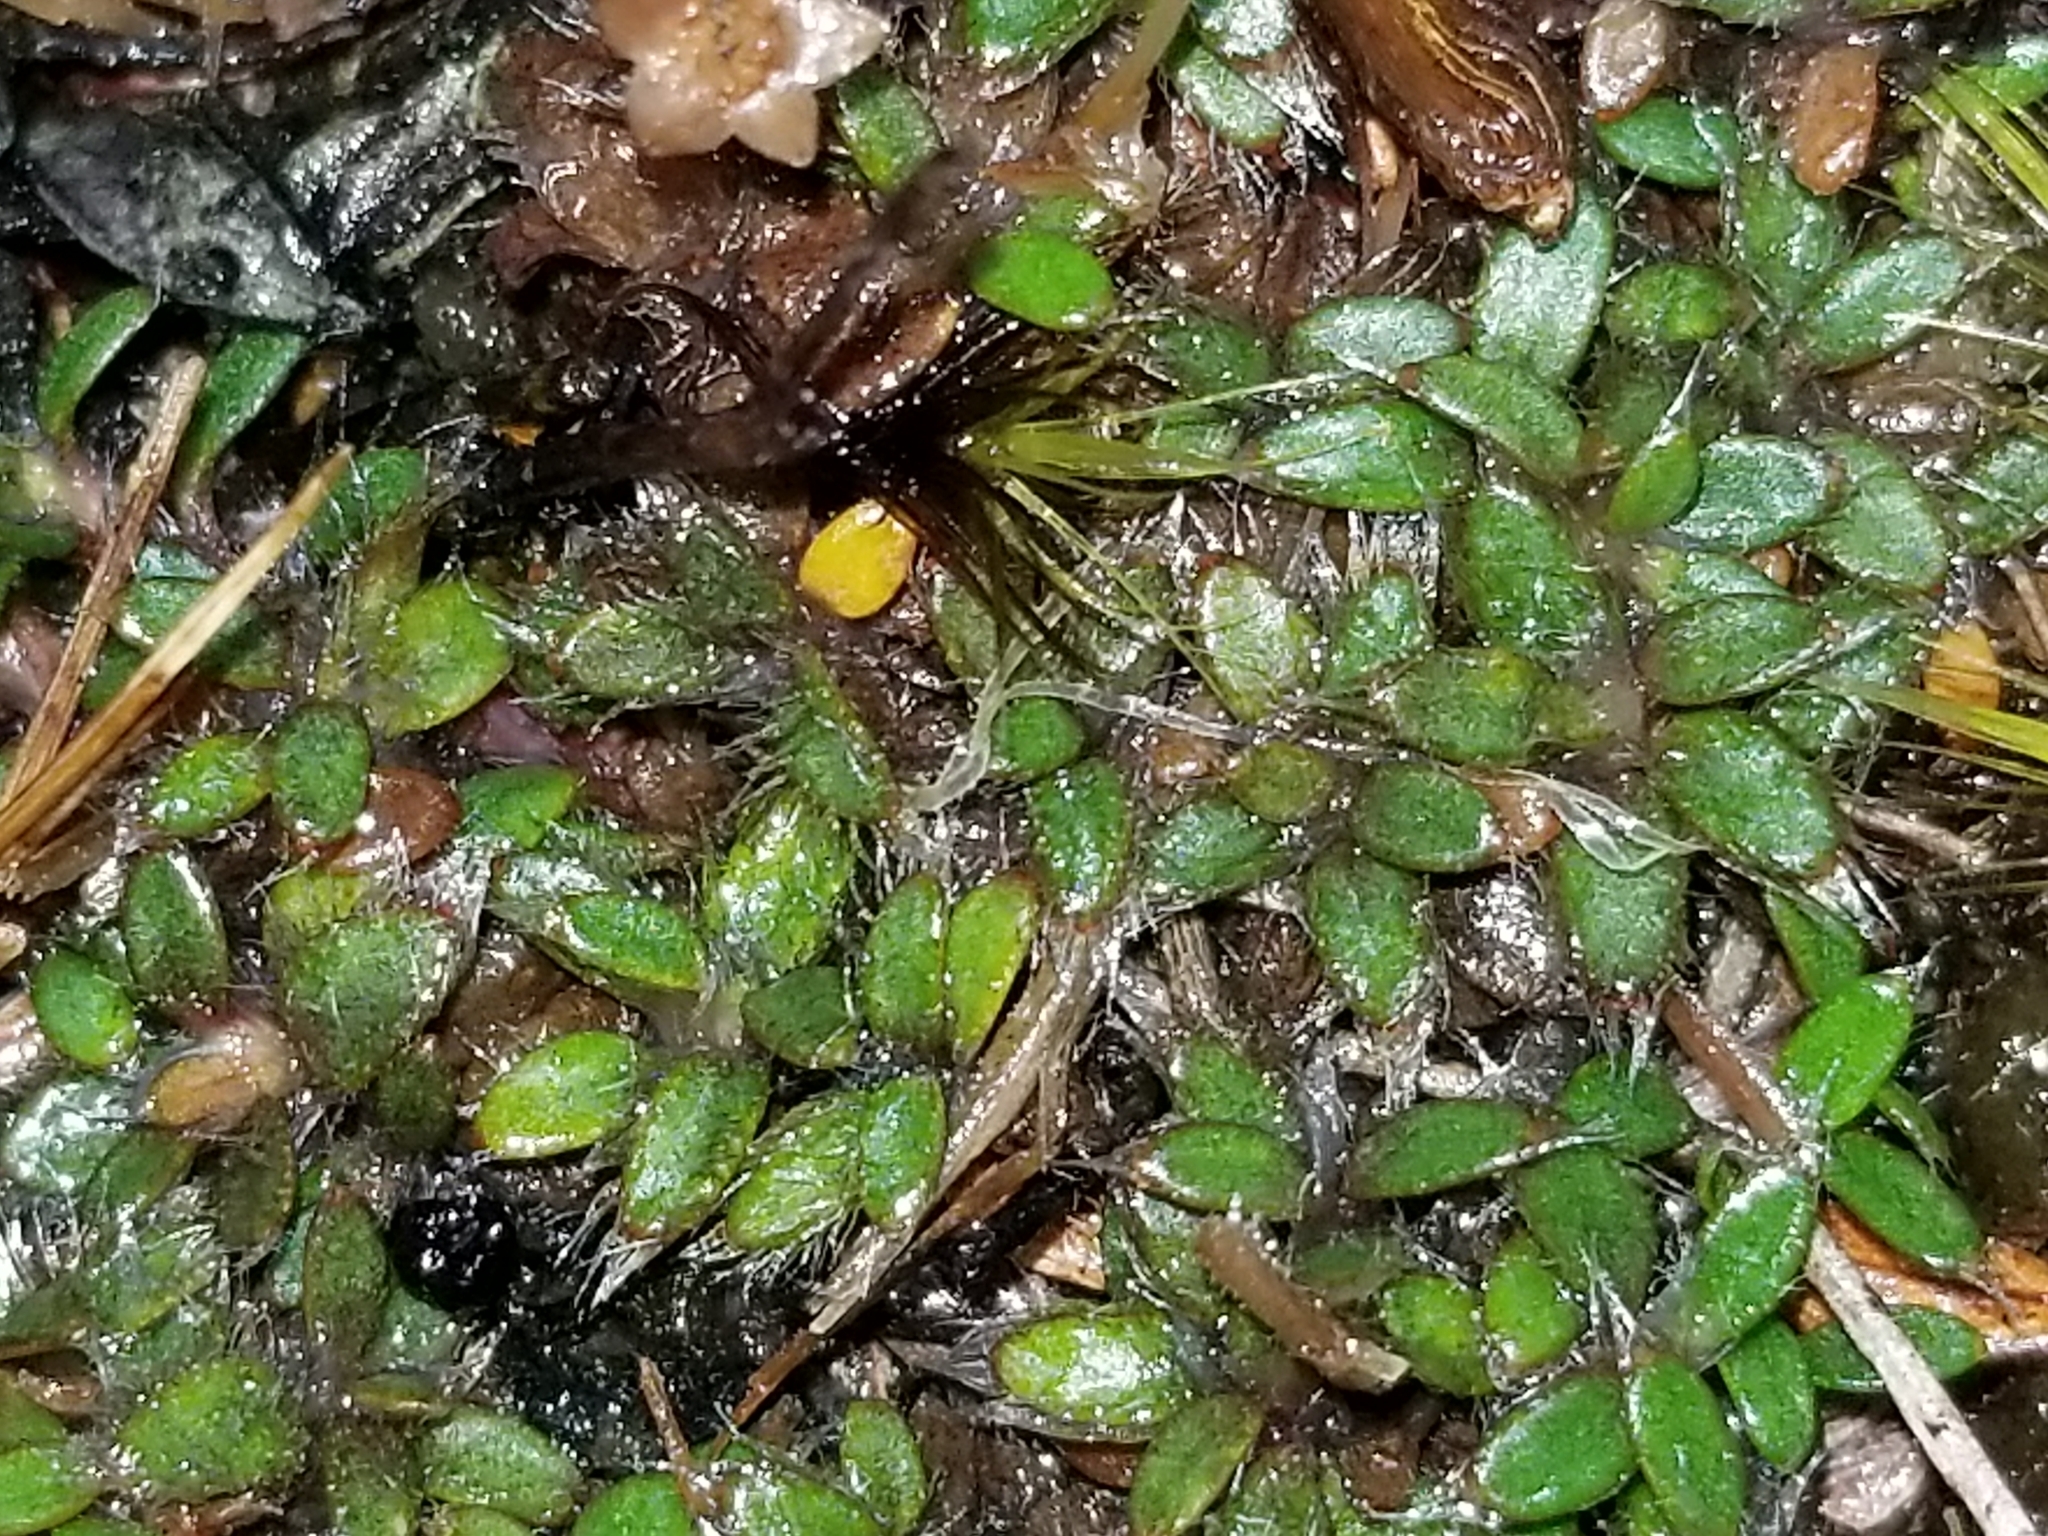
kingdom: Plantae
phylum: Tracheophyta
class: Magnoliopsida
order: Apiales
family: Apiaceae
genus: Actinotus
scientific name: Actinotus novae-zealandiae
